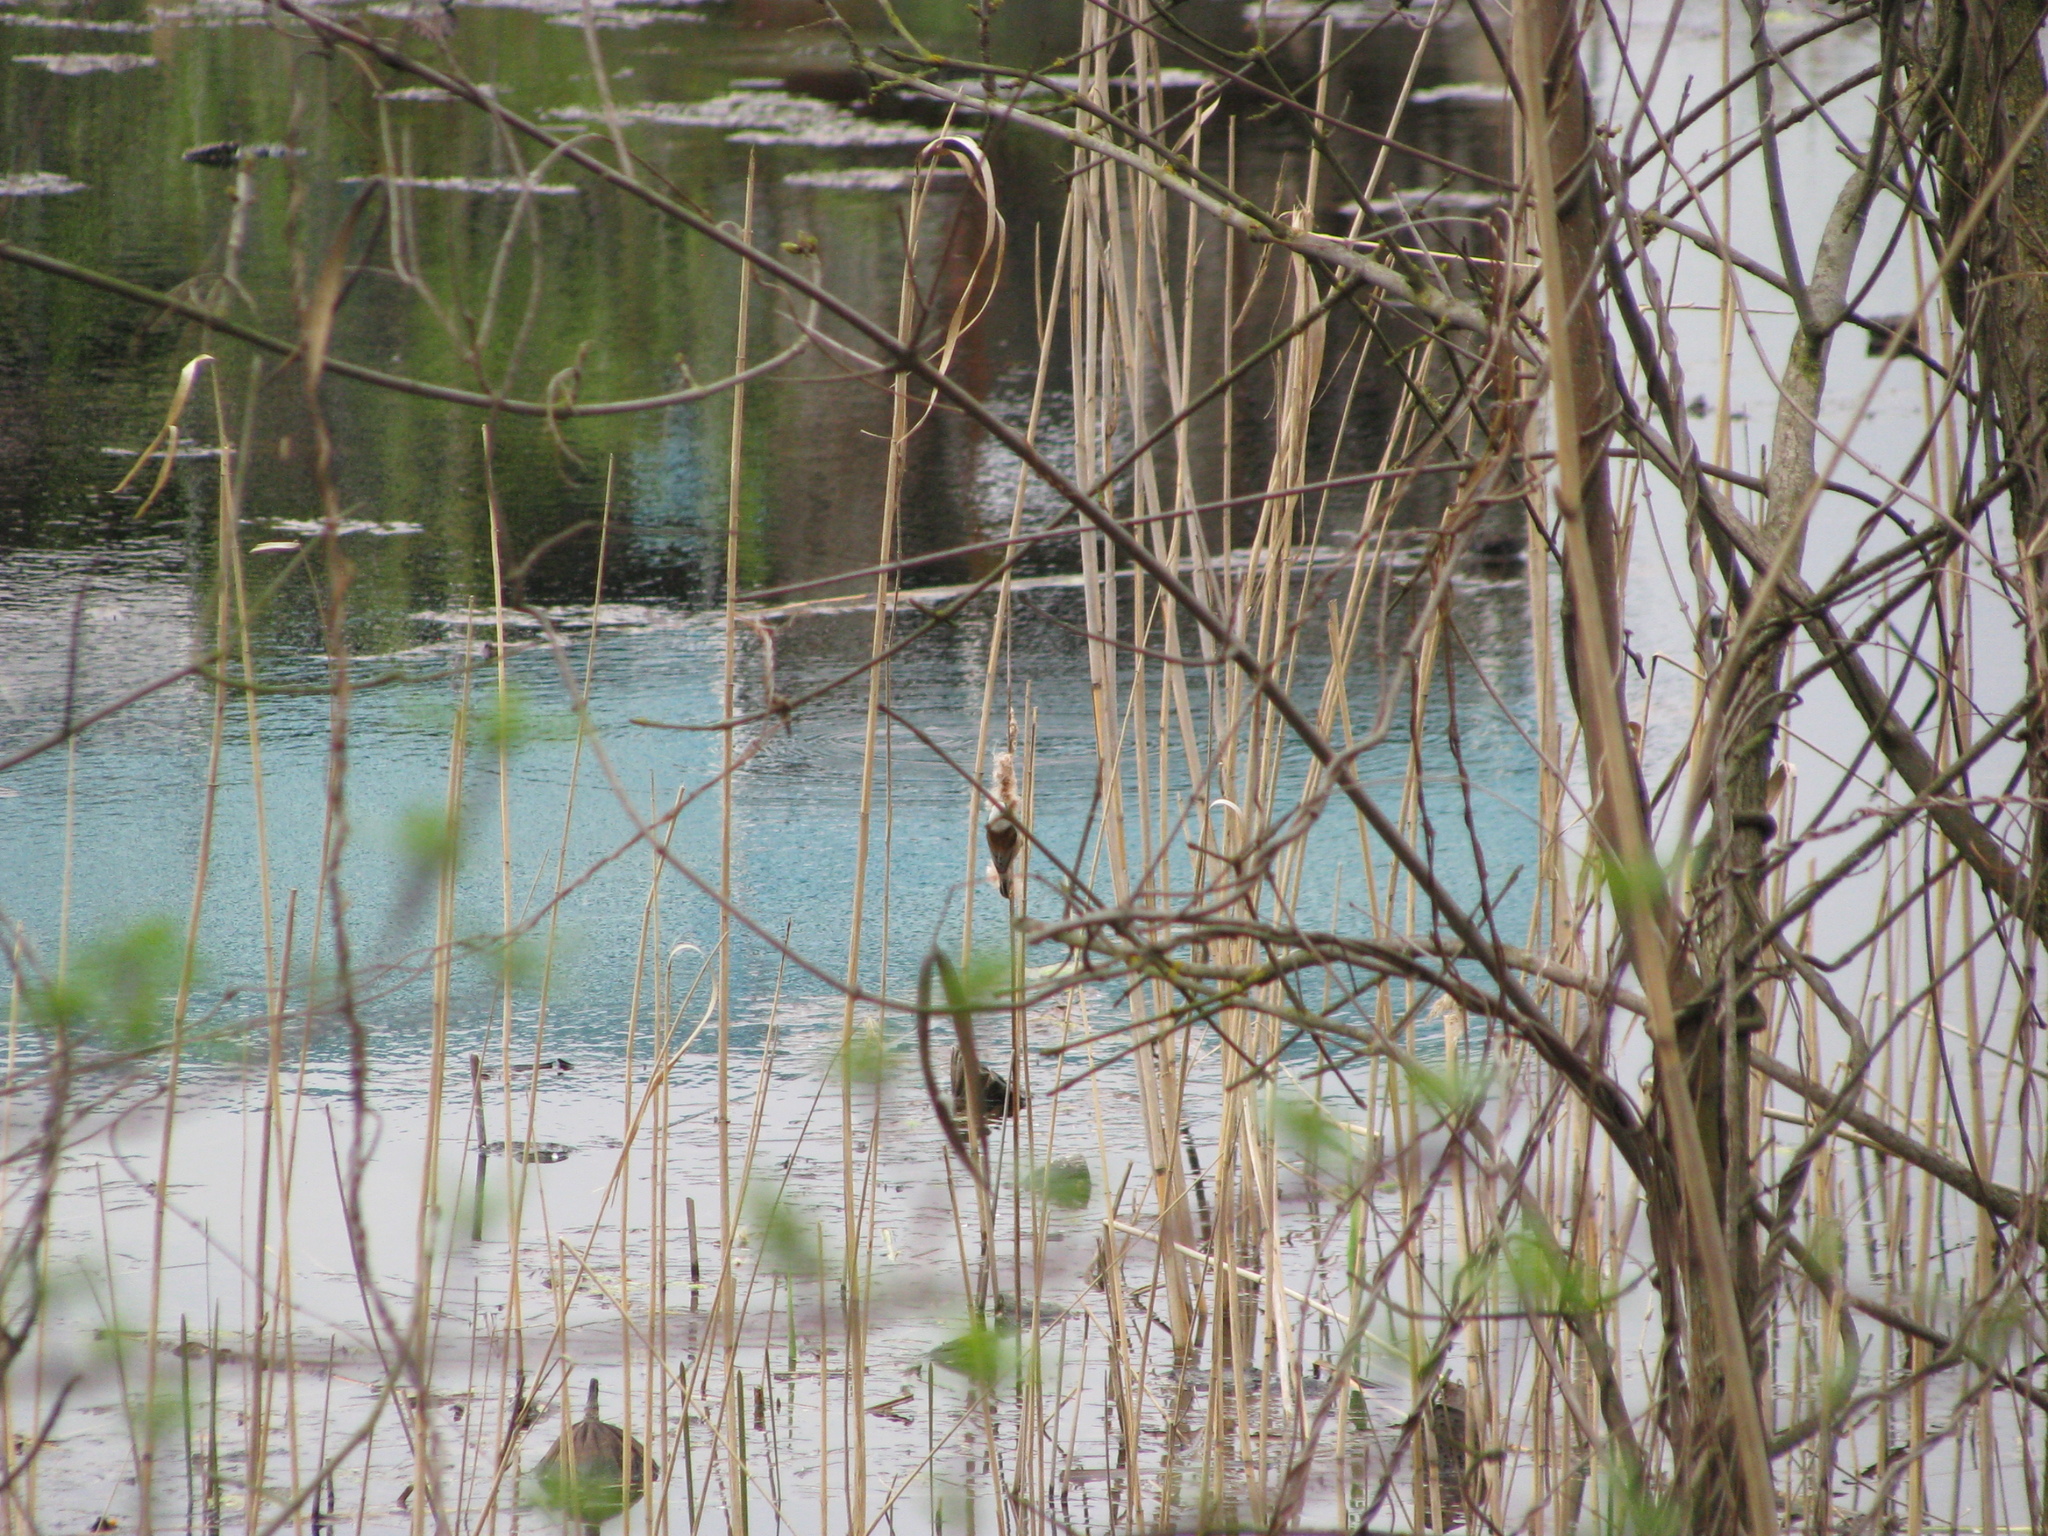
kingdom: Animalia
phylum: Chordata
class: Aves
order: Passeriformes
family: Remizidae
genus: Remiz
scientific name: Remiz pendulinus
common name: Eurasian penduline tit
